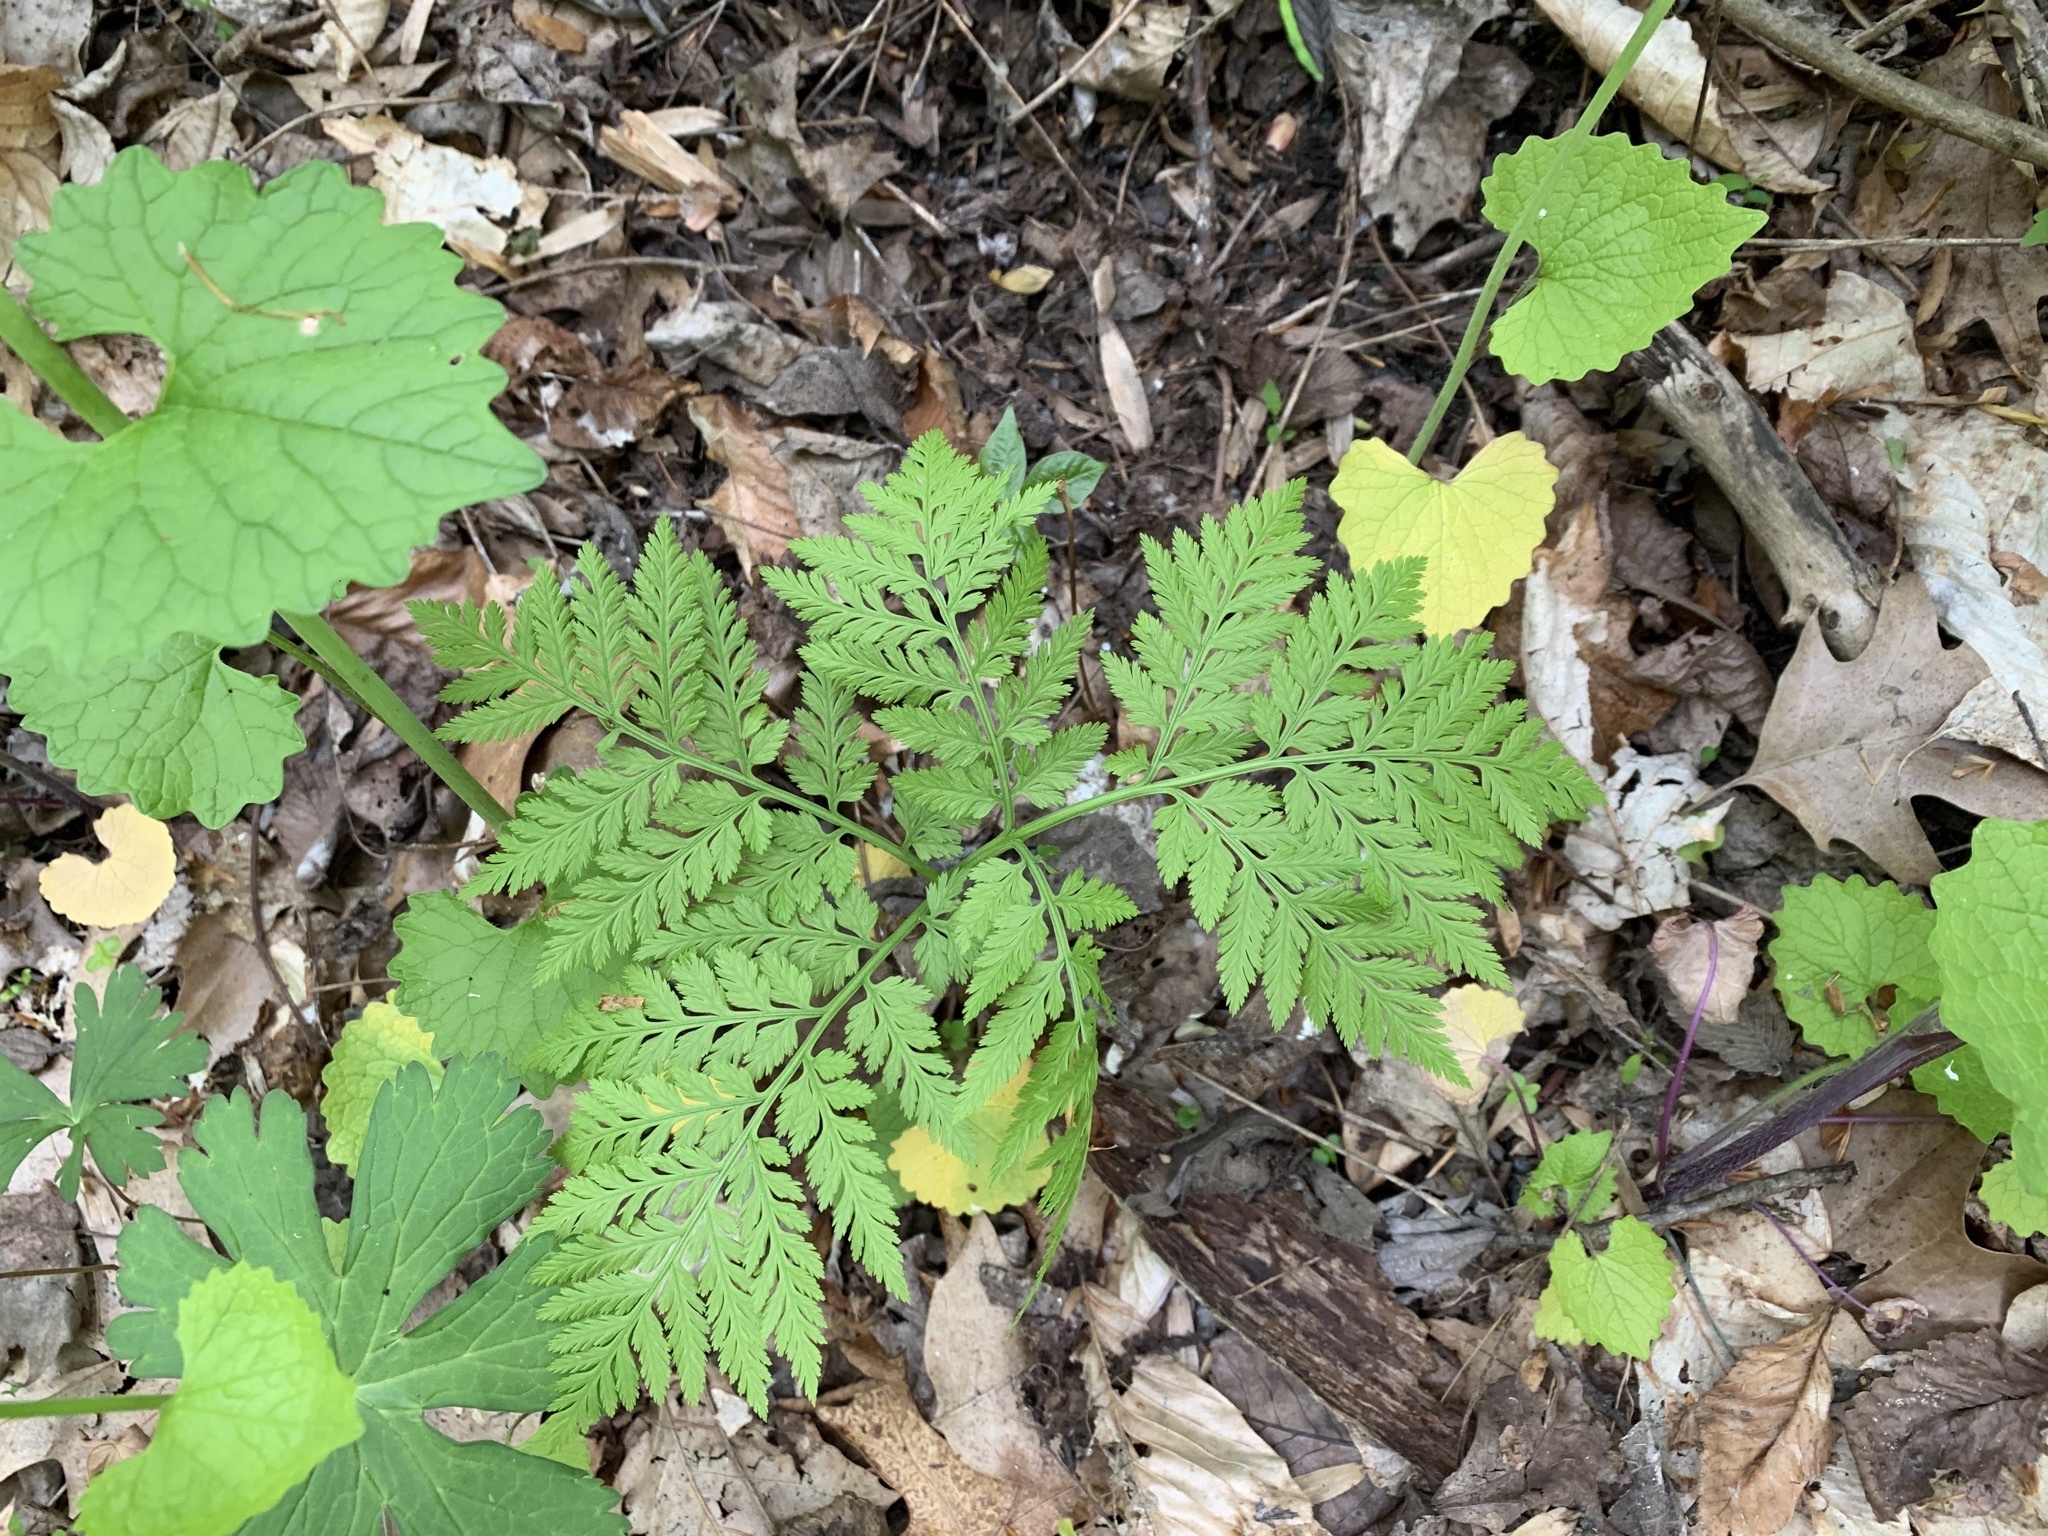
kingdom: Plantae
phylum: Tracheophyta
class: Polypodiopsida
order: Ophioglossales
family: Ophioglossaceae
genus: Botrypus
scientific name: Botrypus virginianus
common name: Common grapefern
